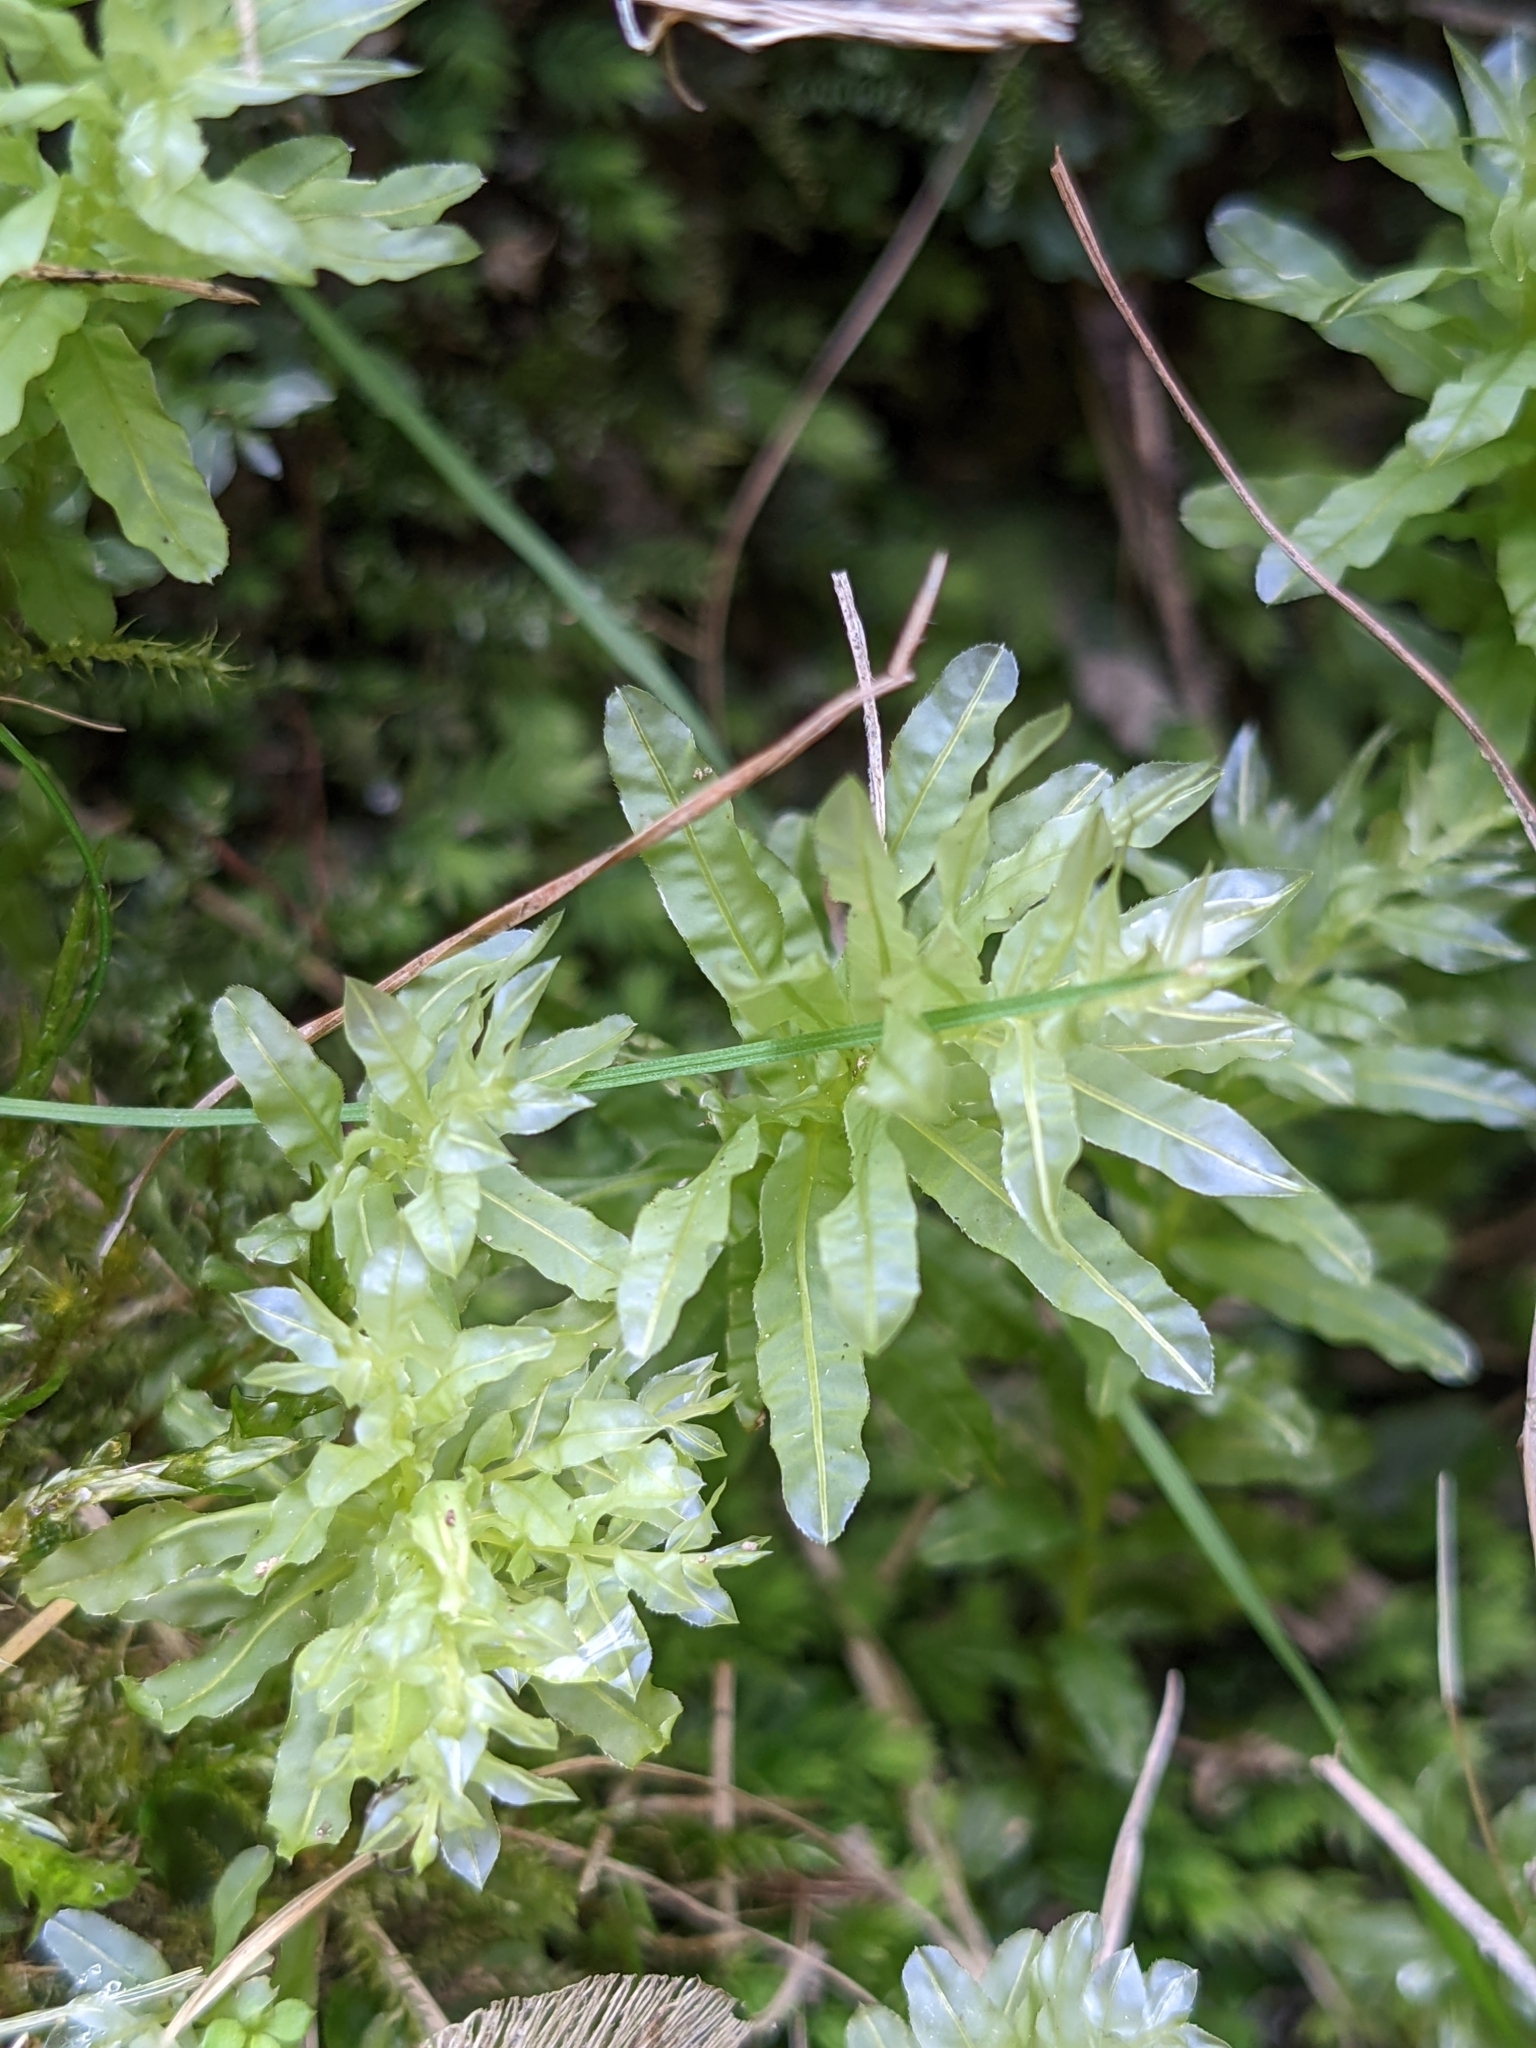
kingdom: Plantae
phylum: Bryophyta
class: Bryopsida
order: Bryales
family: Mniaceae
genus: Plagiomnium
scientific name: Plagiomnium undulatum
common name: Hart's-tongue thyme-moss
